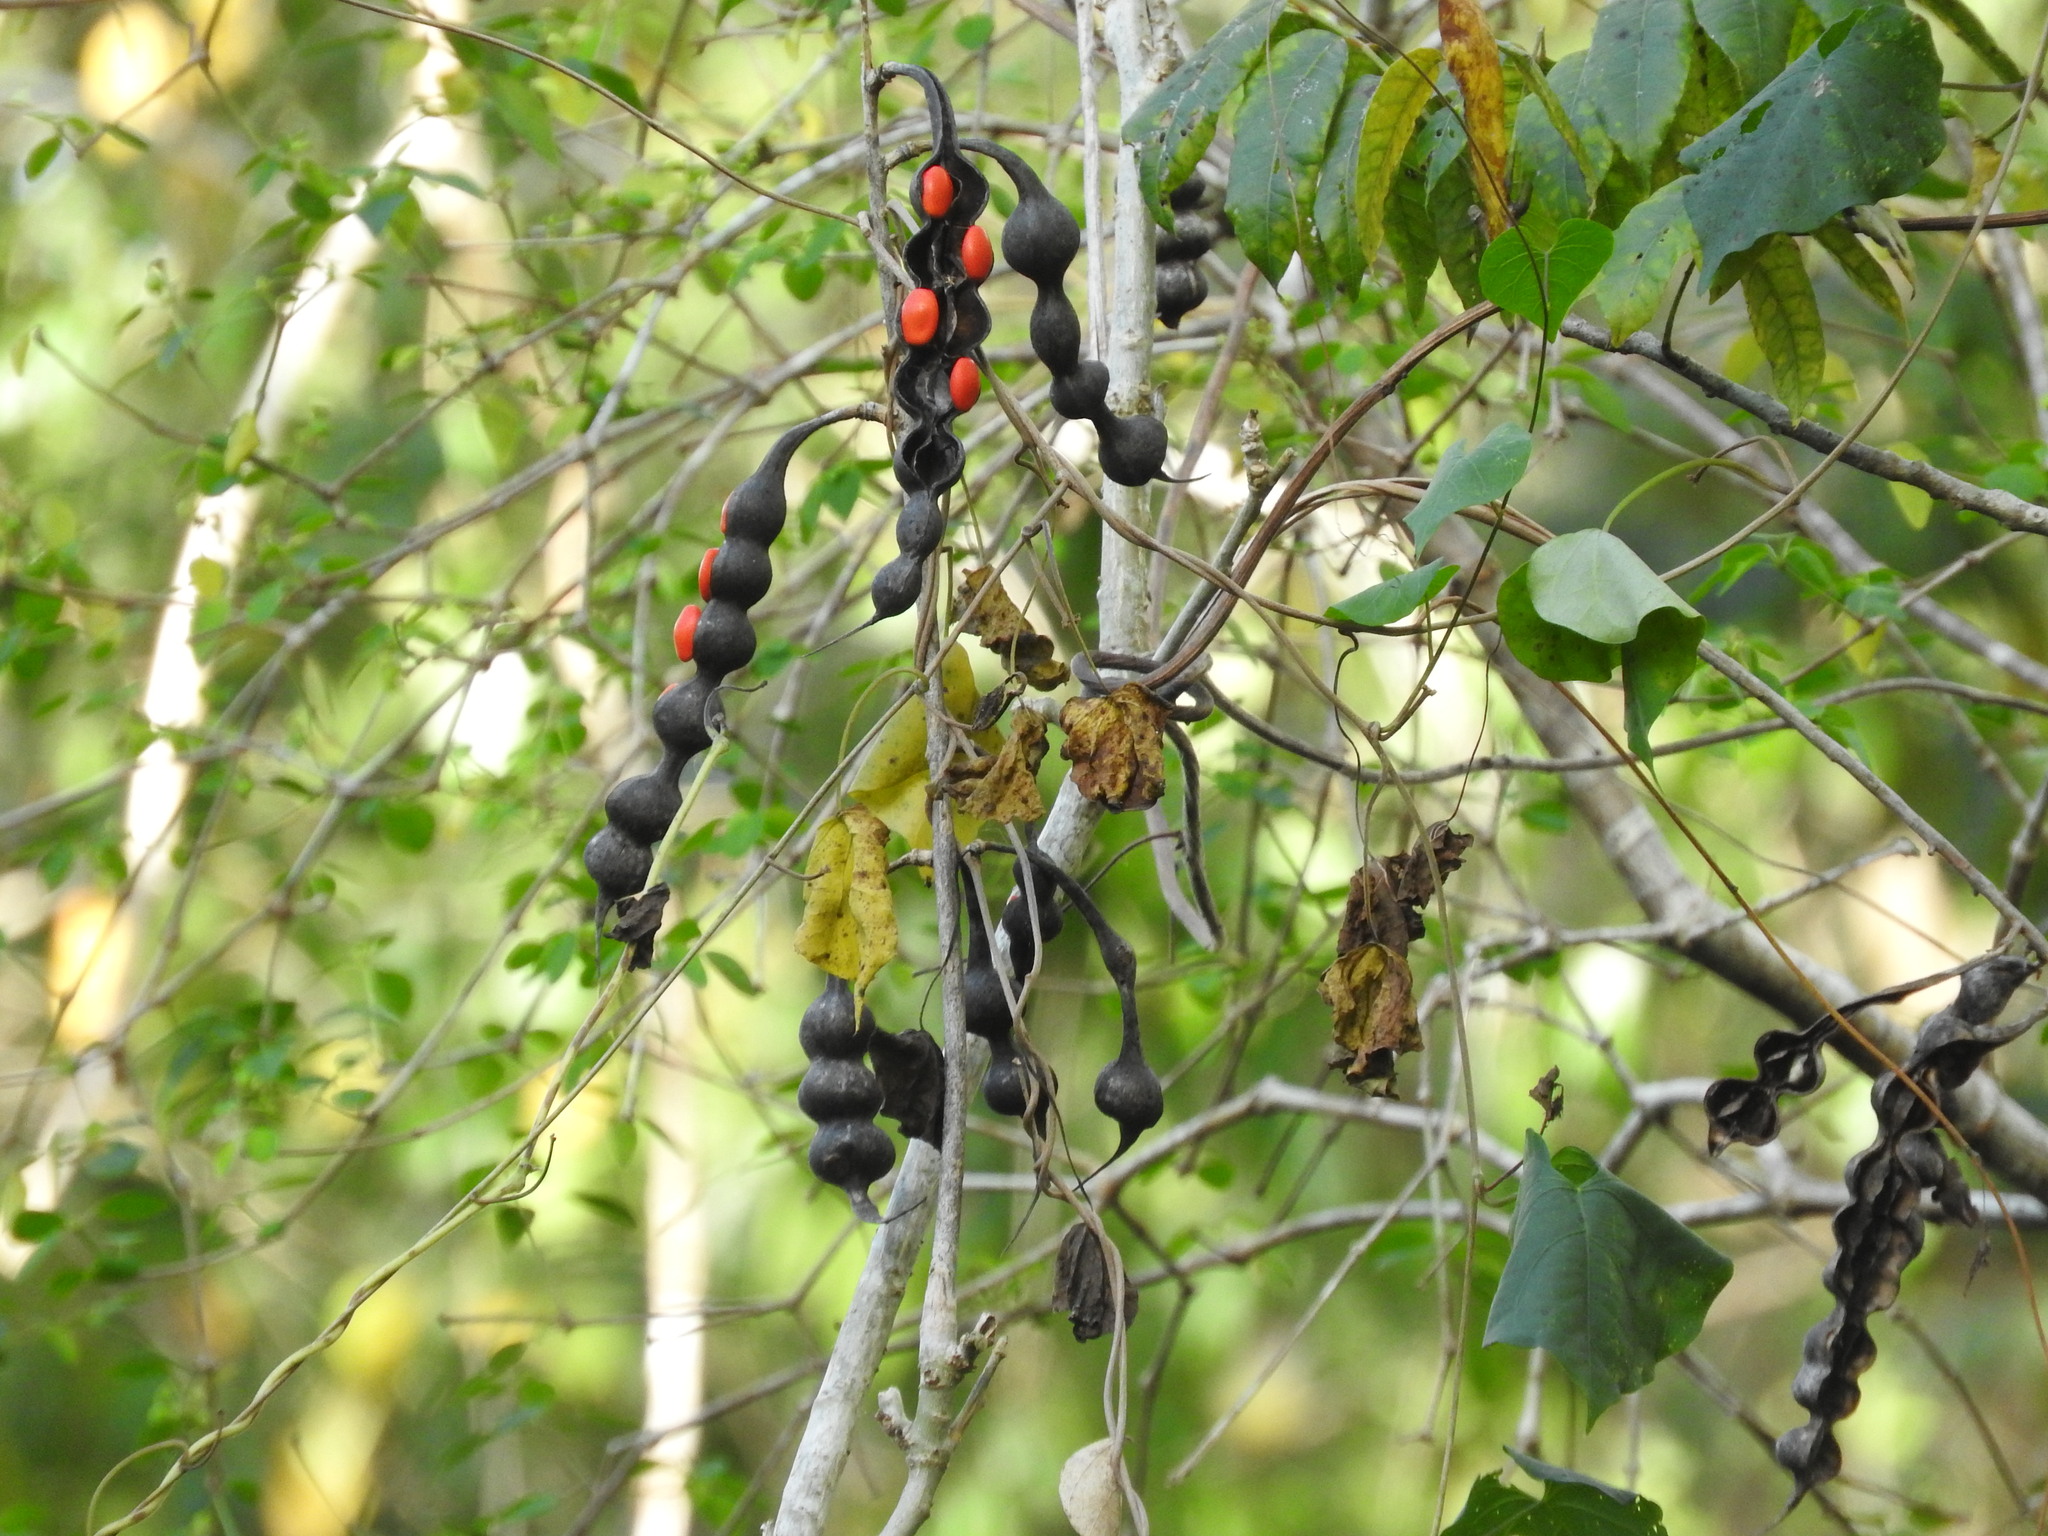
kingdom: Plantae
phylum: Tracheophyta
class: Magnoliopsida
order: Fabales
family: Fabaceae
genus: Erythrina
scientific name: Erythrina folkersii
